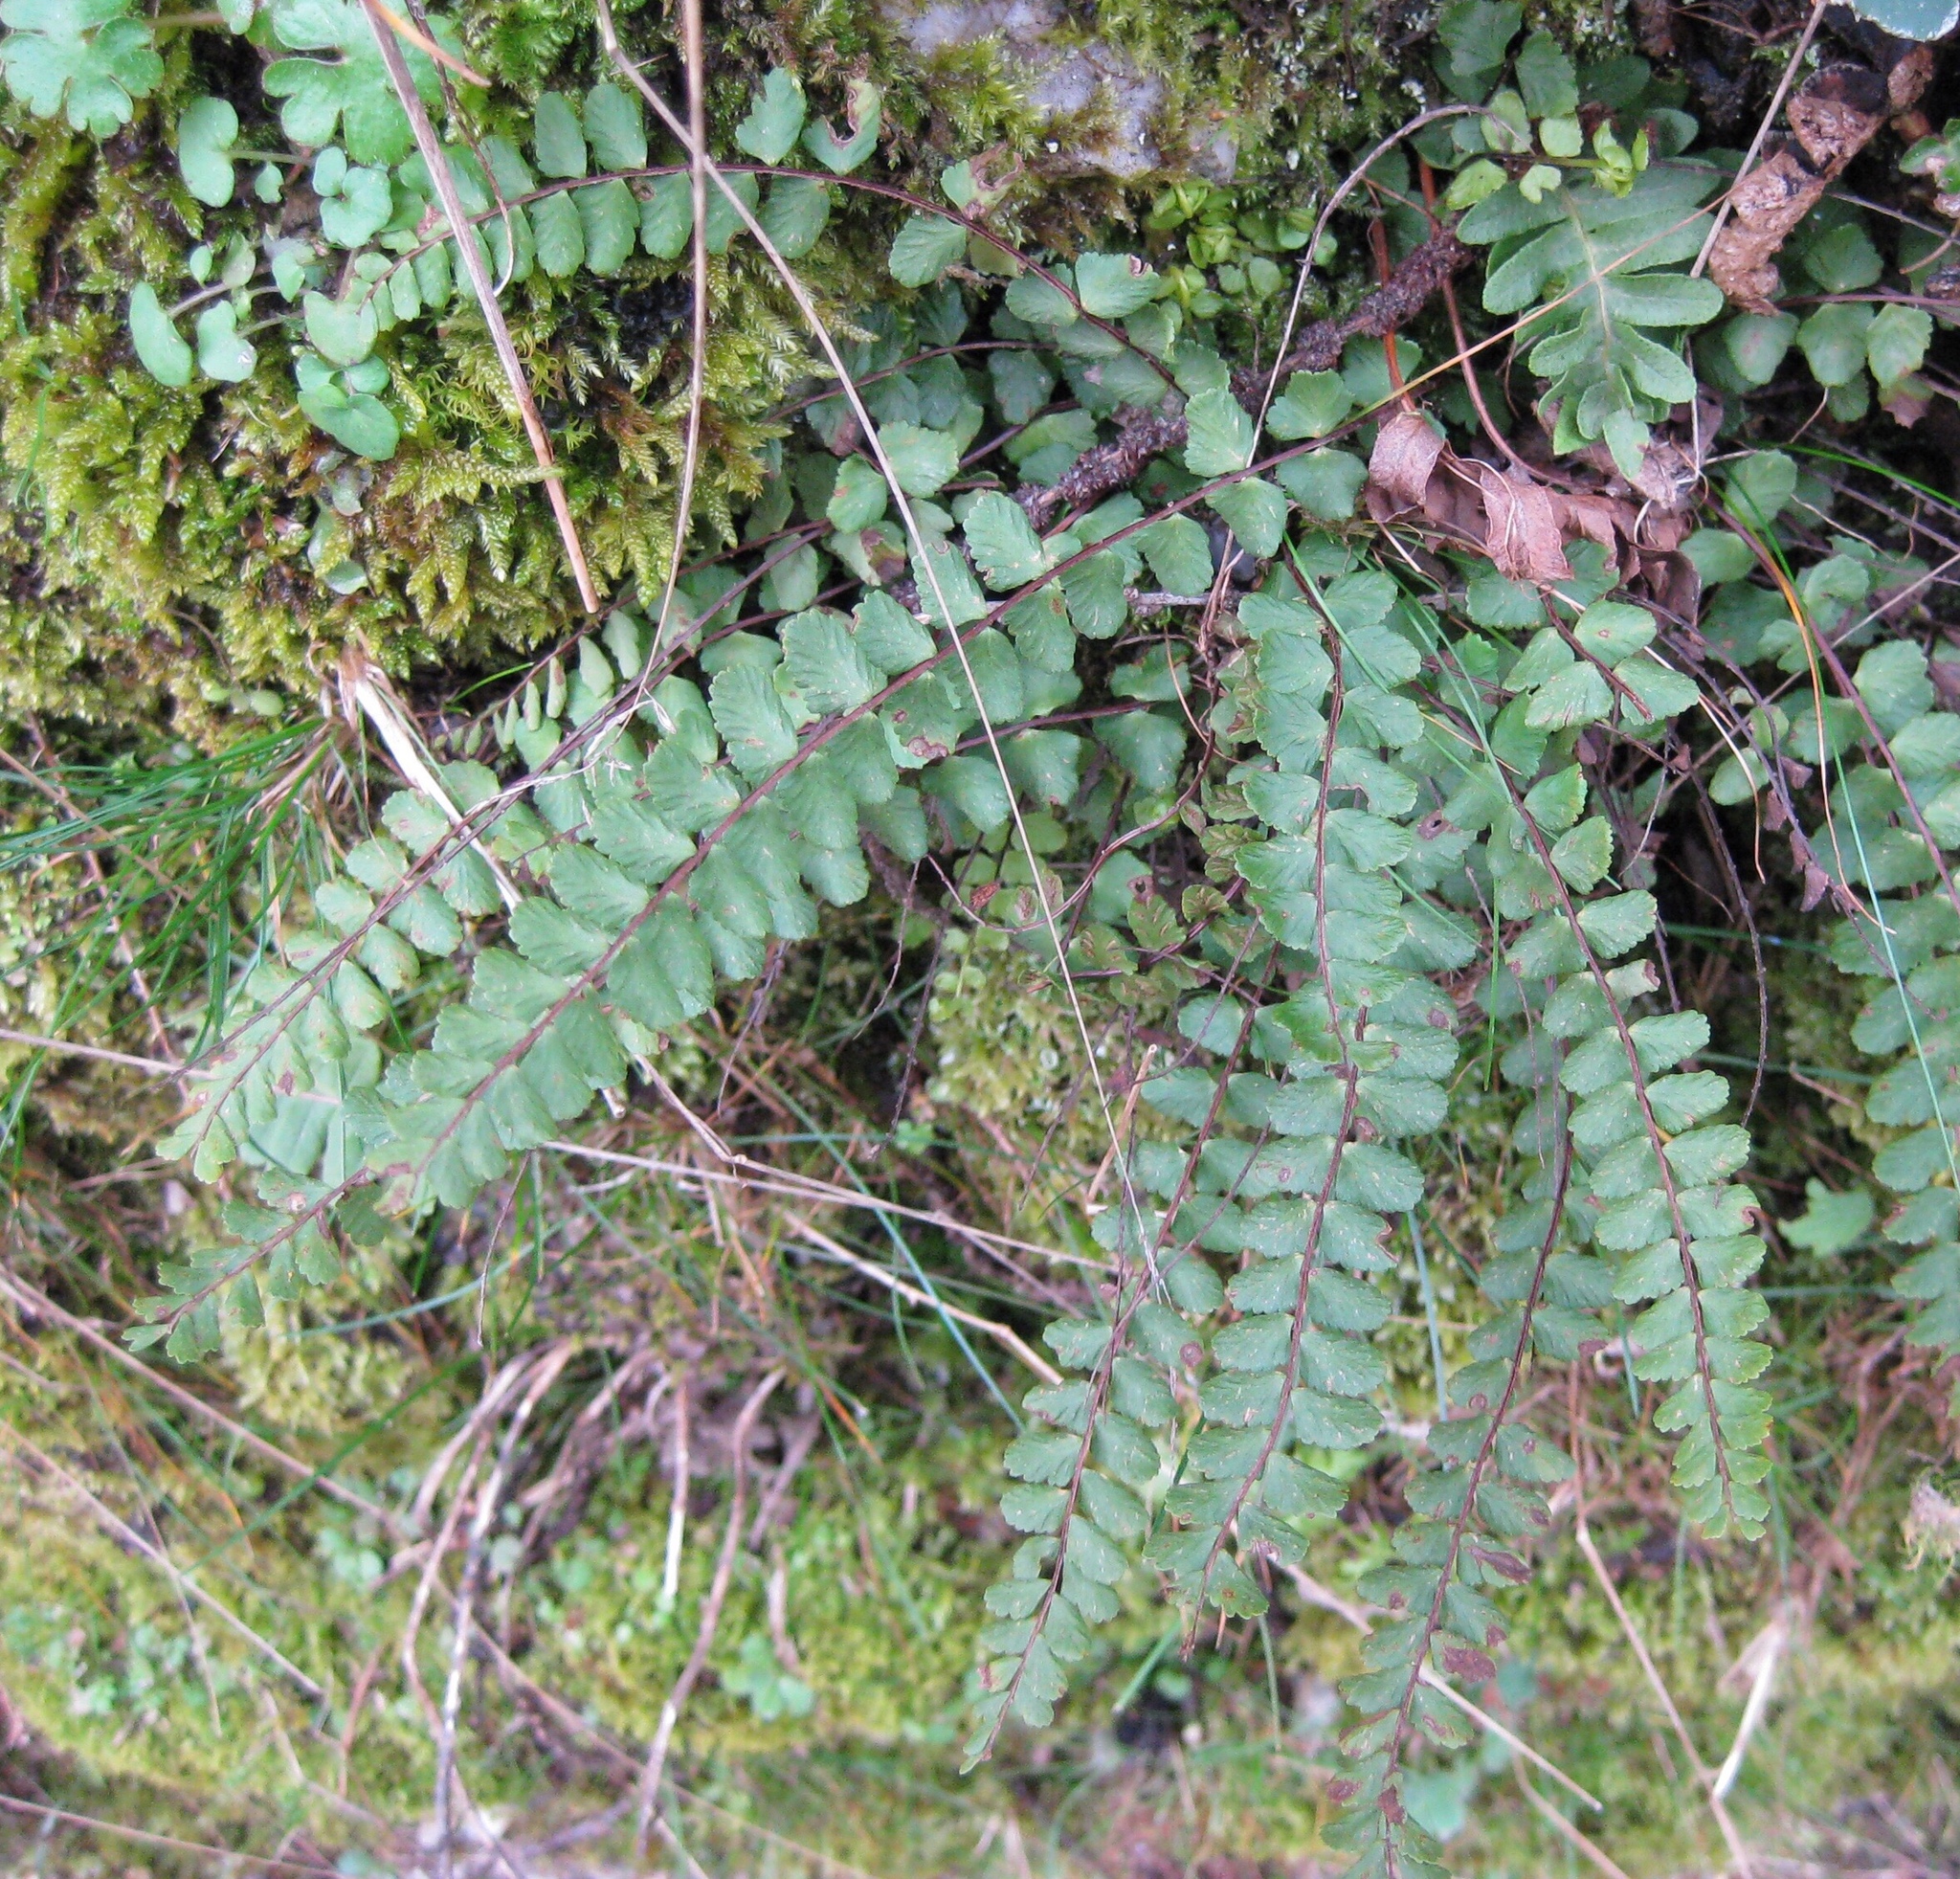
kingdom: Plantae
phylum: Tracheophyta
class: Polypodiopsida
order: Polypodiales
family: Aspleniaceae
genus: Asplenium
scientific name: Asplenium trichomanes
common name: Maidenhair spleenwort
